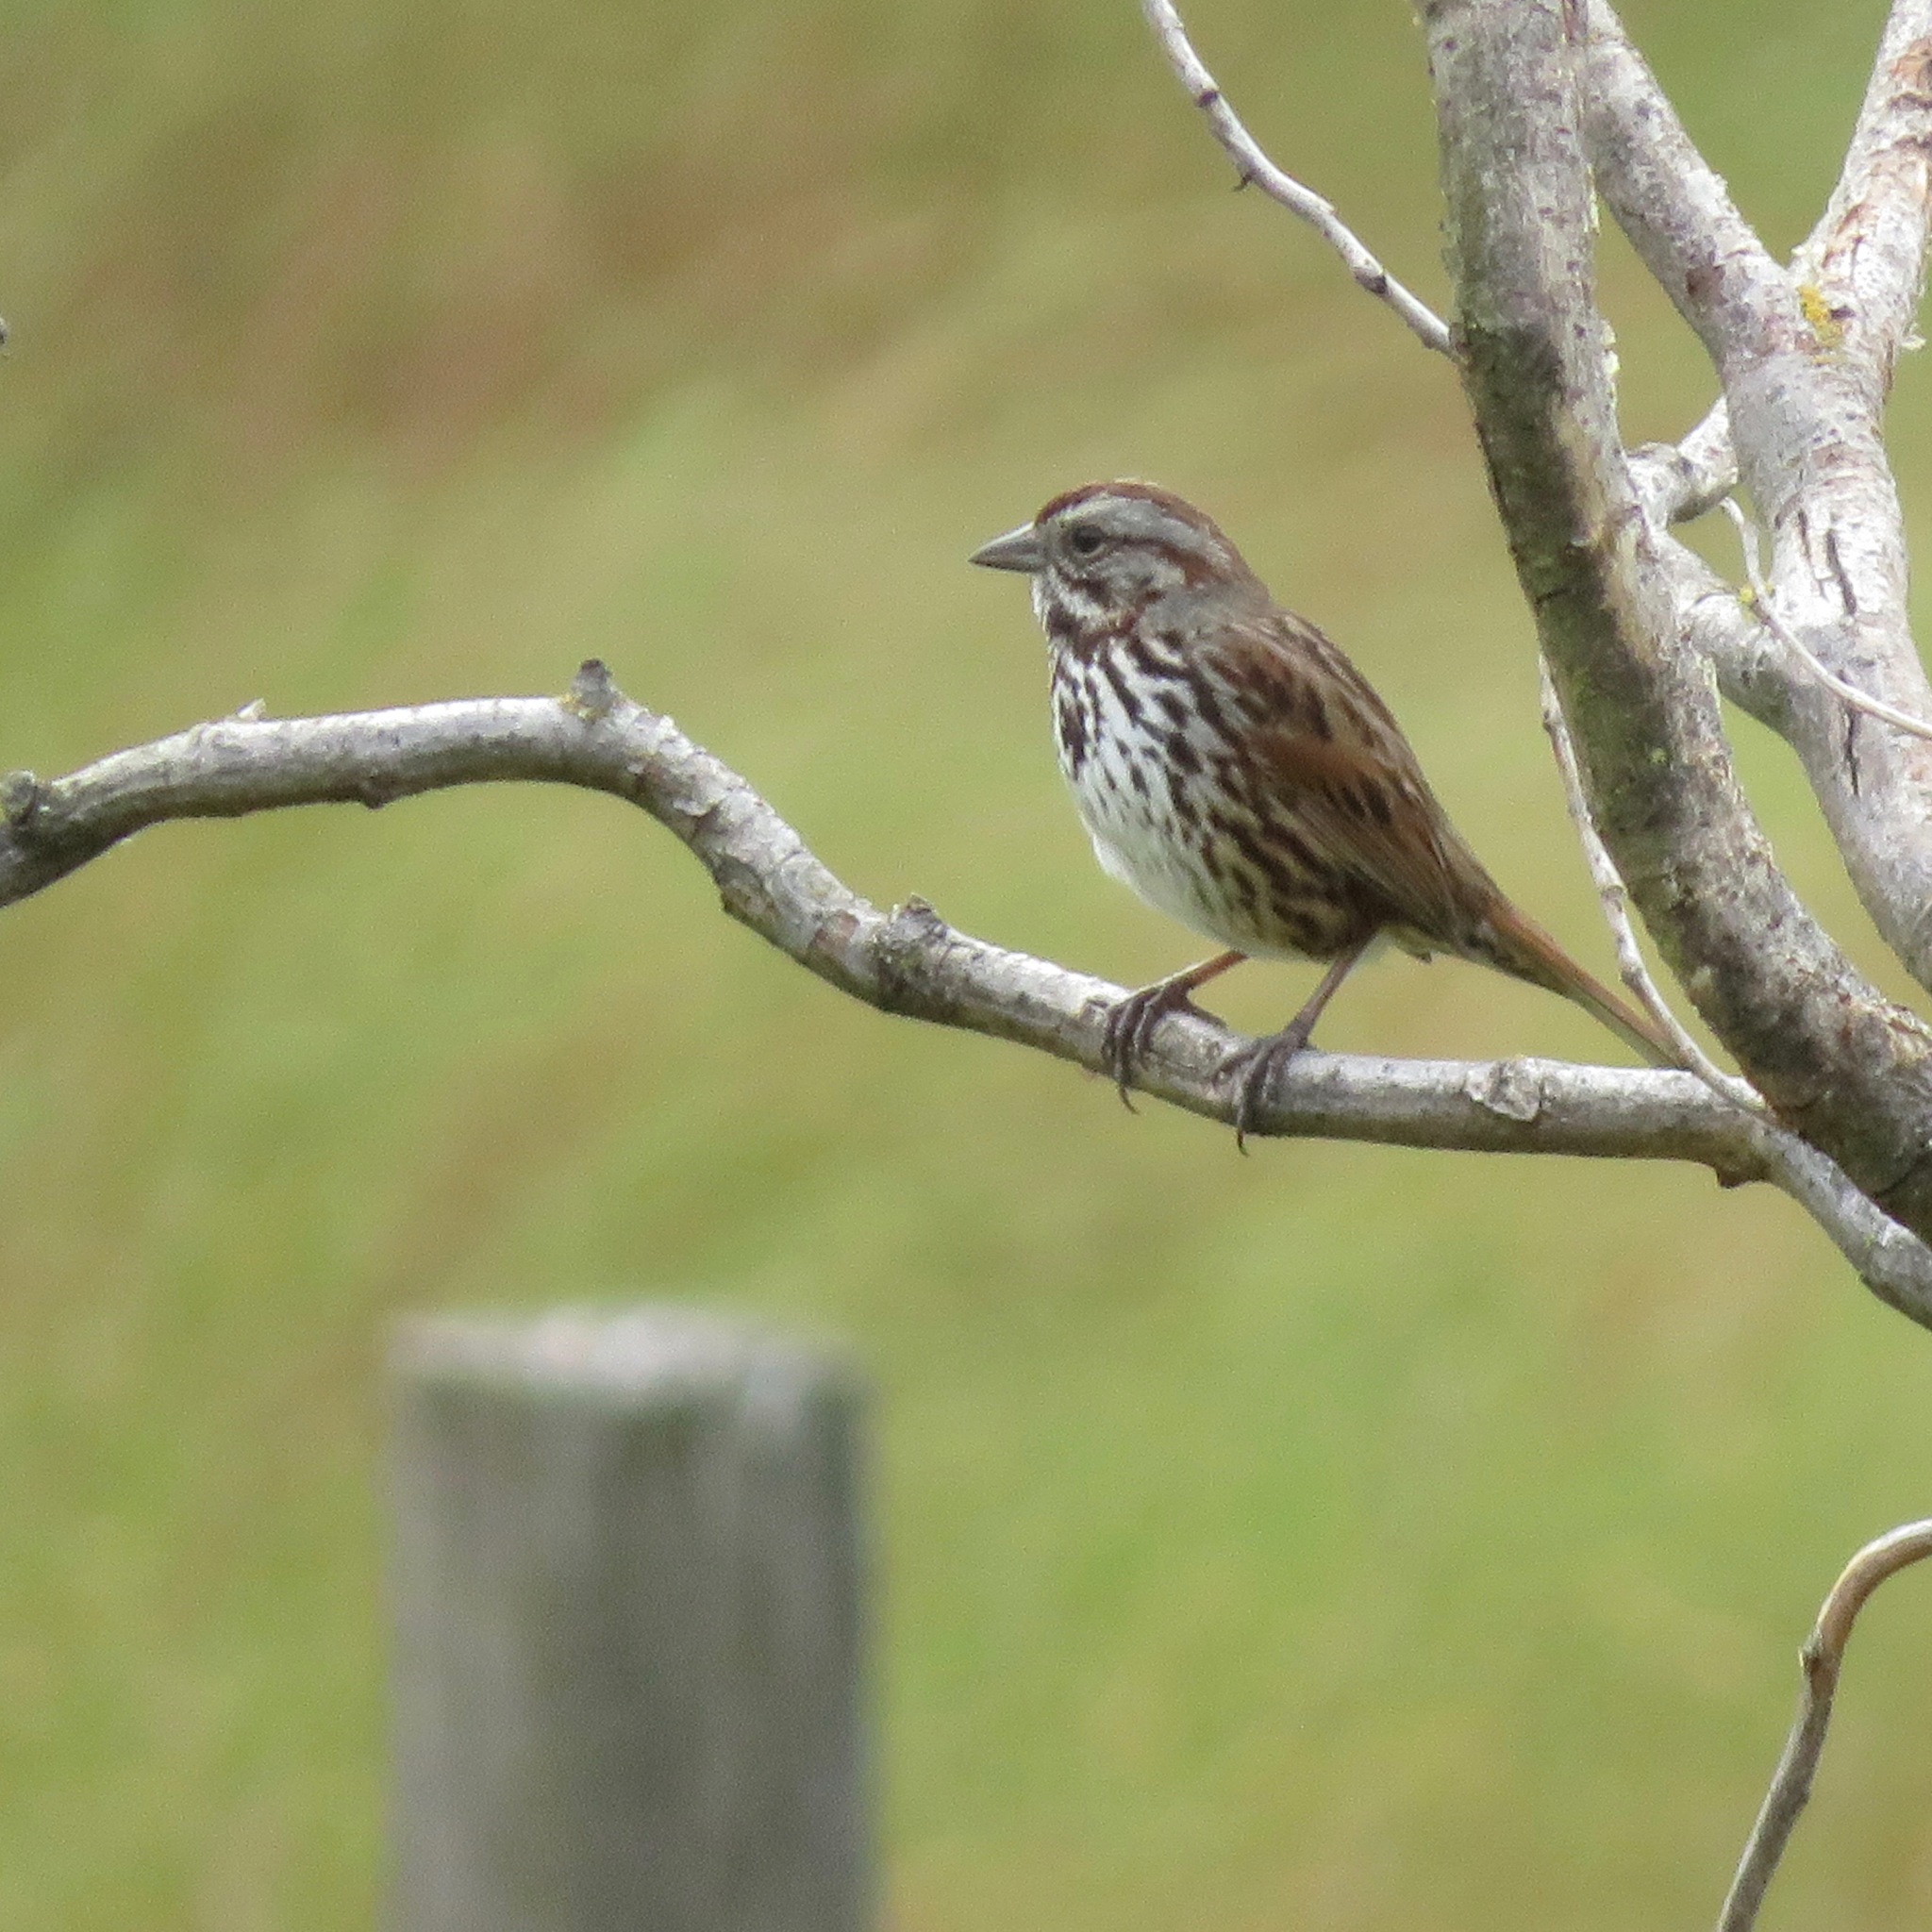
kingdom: Animalia
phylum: Chordata
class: Aves
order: Passeriformes
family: Passerellidae
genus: Melospiza
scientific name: Melospiza melodia
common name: Song sparrow
